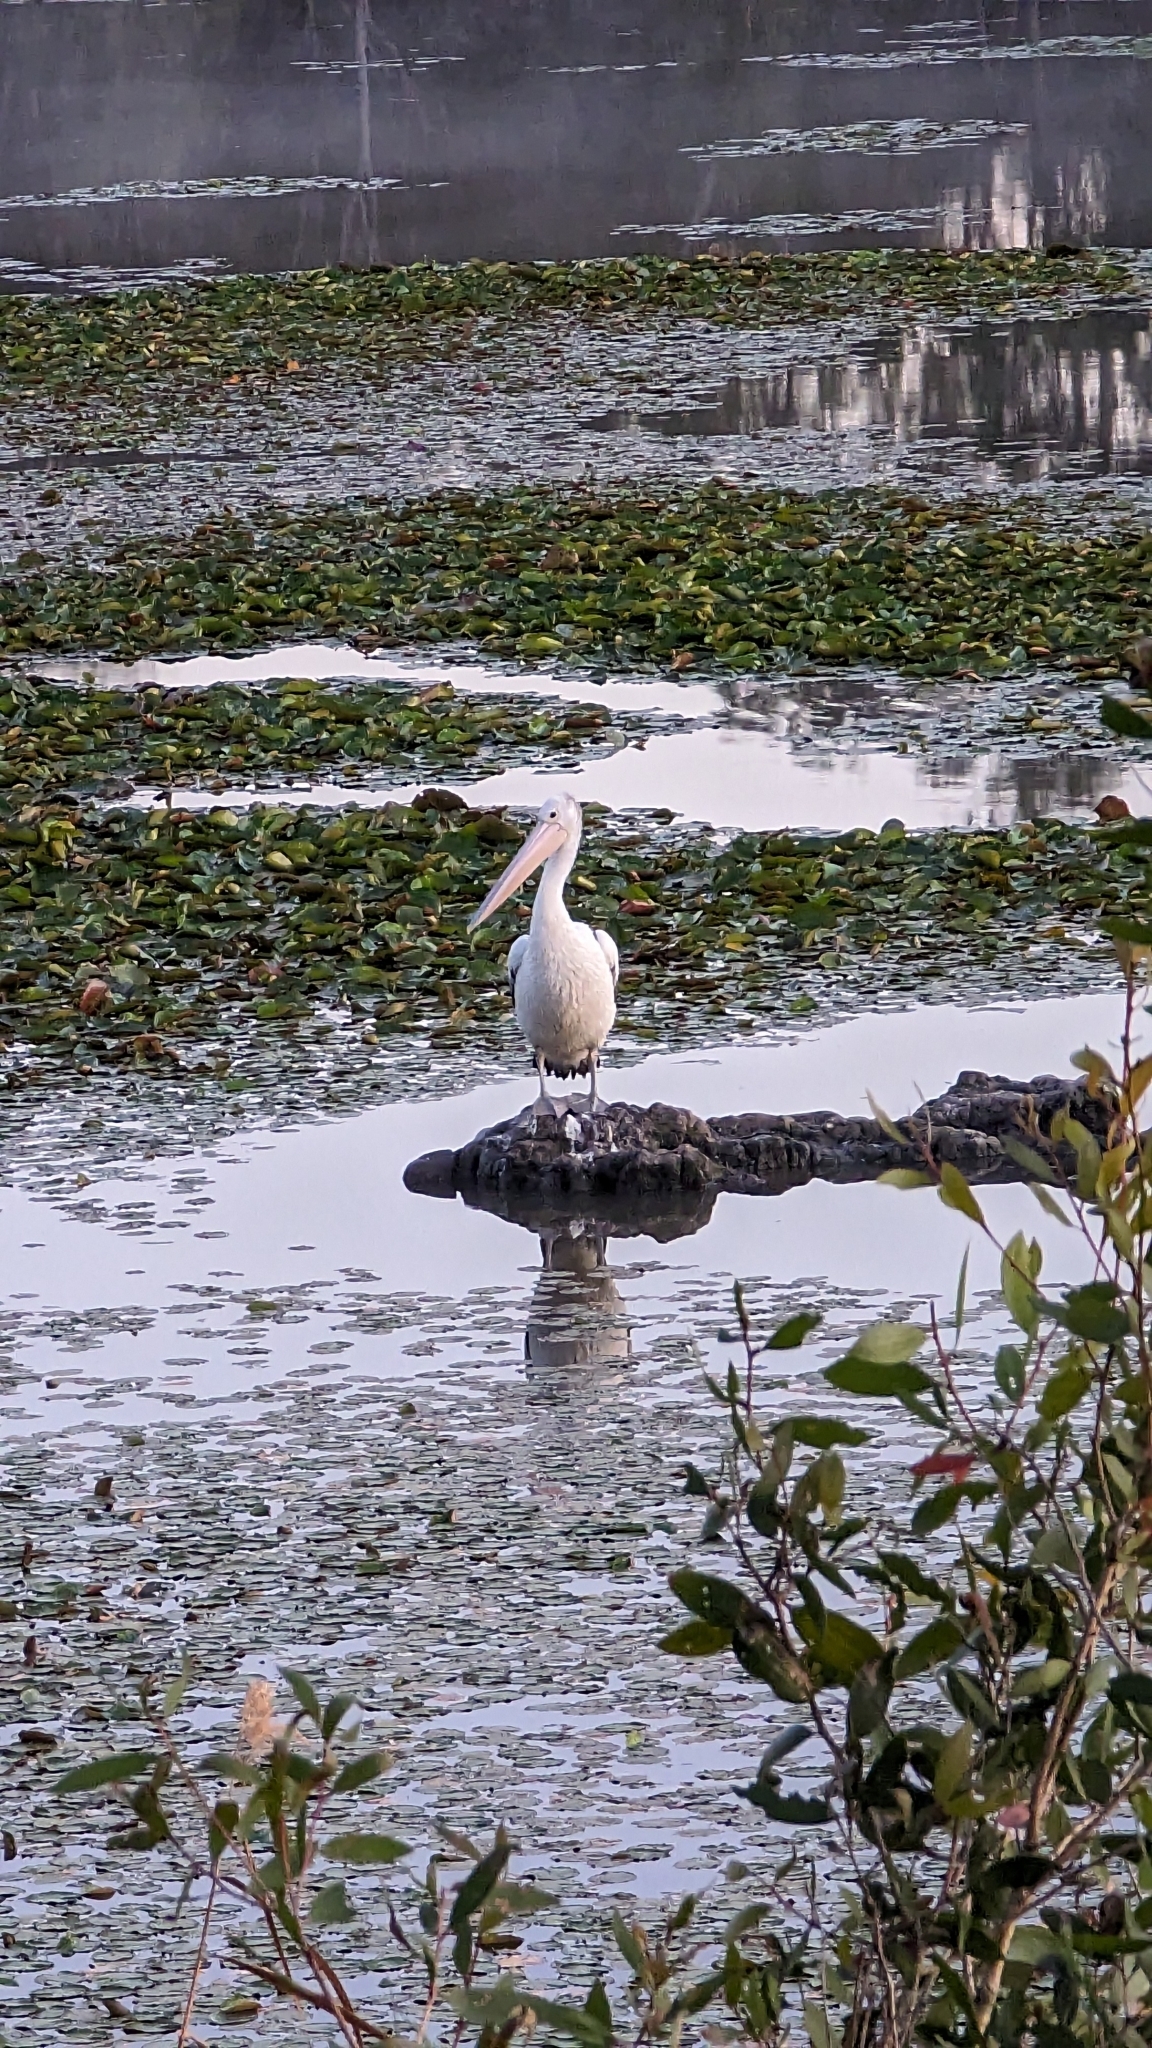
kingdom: Animalia
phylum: Chordata
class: Aves
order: Pelecaniformes
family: Pelecanidae
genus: Pelecanus
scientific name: Pelecanus conspicillatus
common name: Australian pelican
